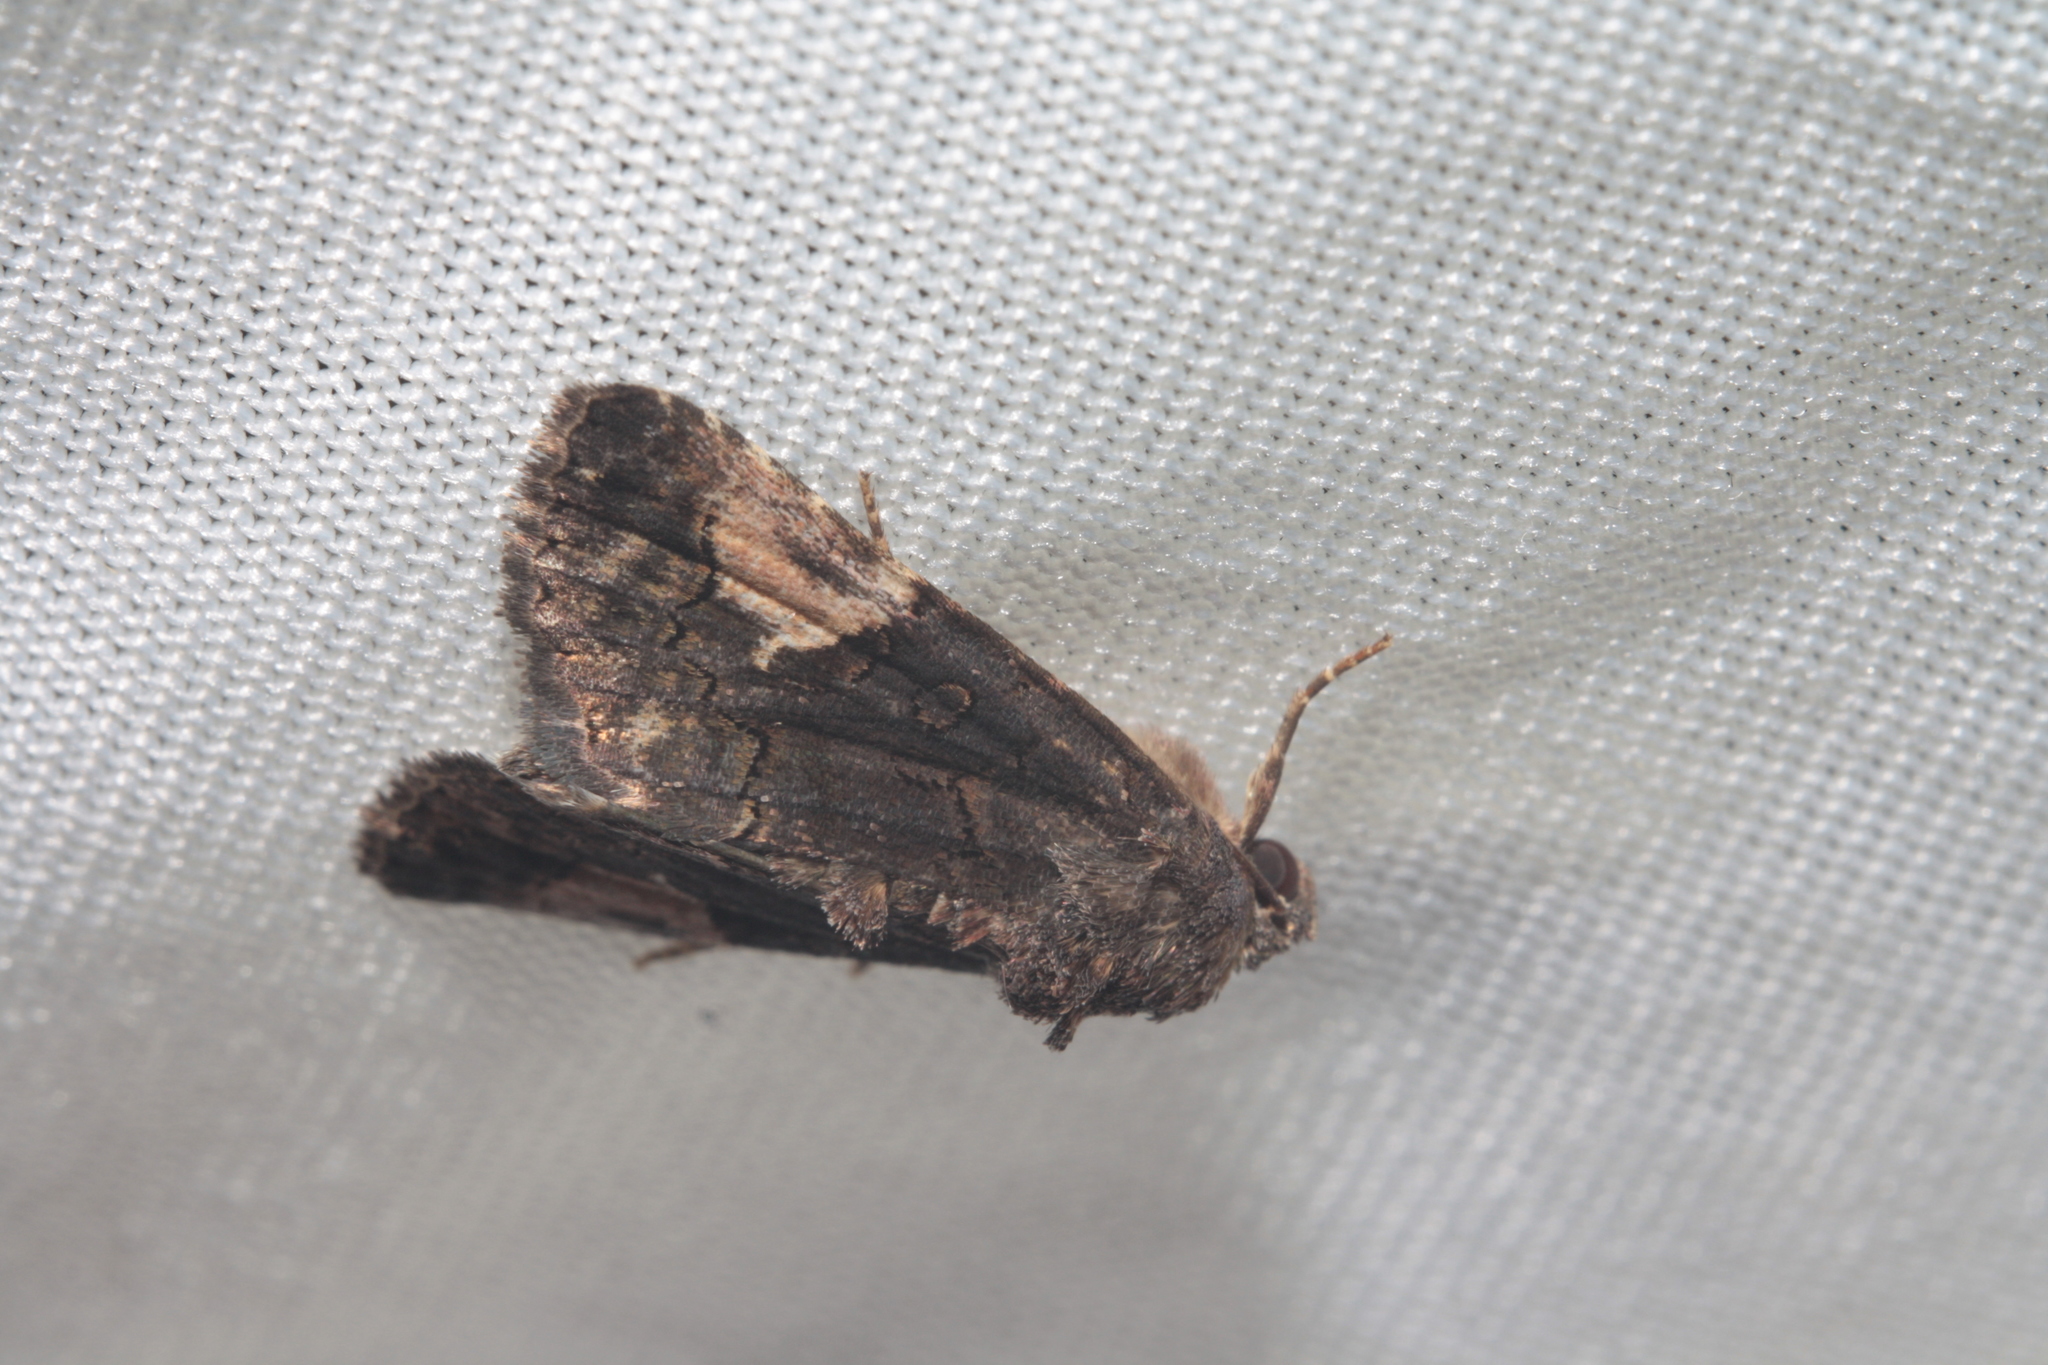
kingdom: Animalia
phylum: Arthropoda
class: Insecta
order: Lepidoptera
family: Noctuidae
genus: Aedia
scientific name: Aedia funesta
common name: The druid
